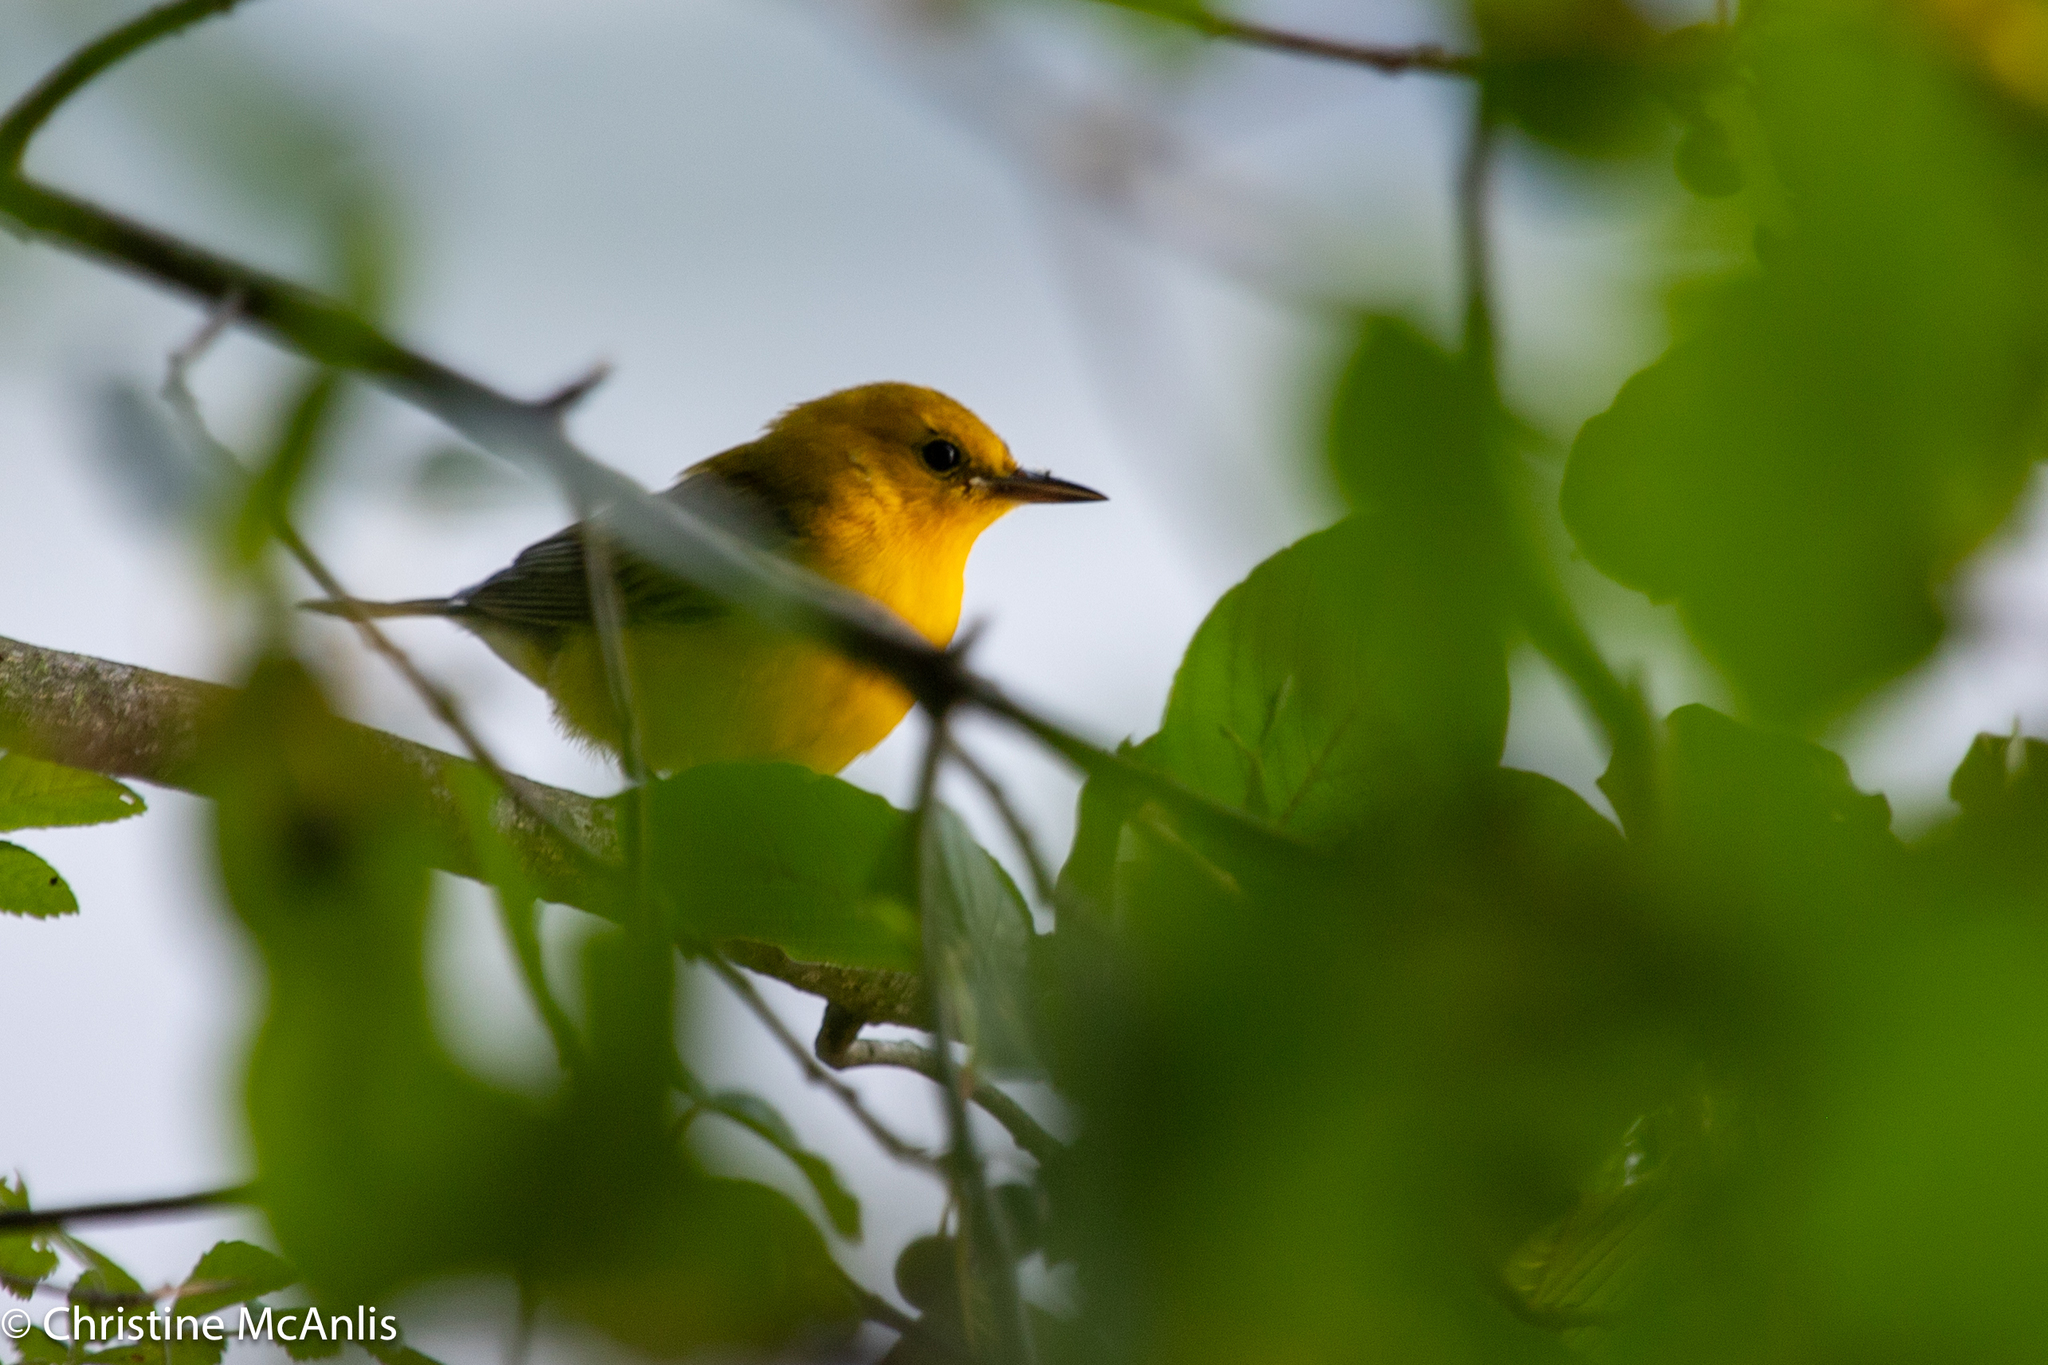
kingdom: Animalia
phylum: Chordata
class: Aves
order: Passeriformes
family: Parulidae
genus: Protonotaria
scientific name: Protonotaria citrea
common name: Prothonotary warbler
